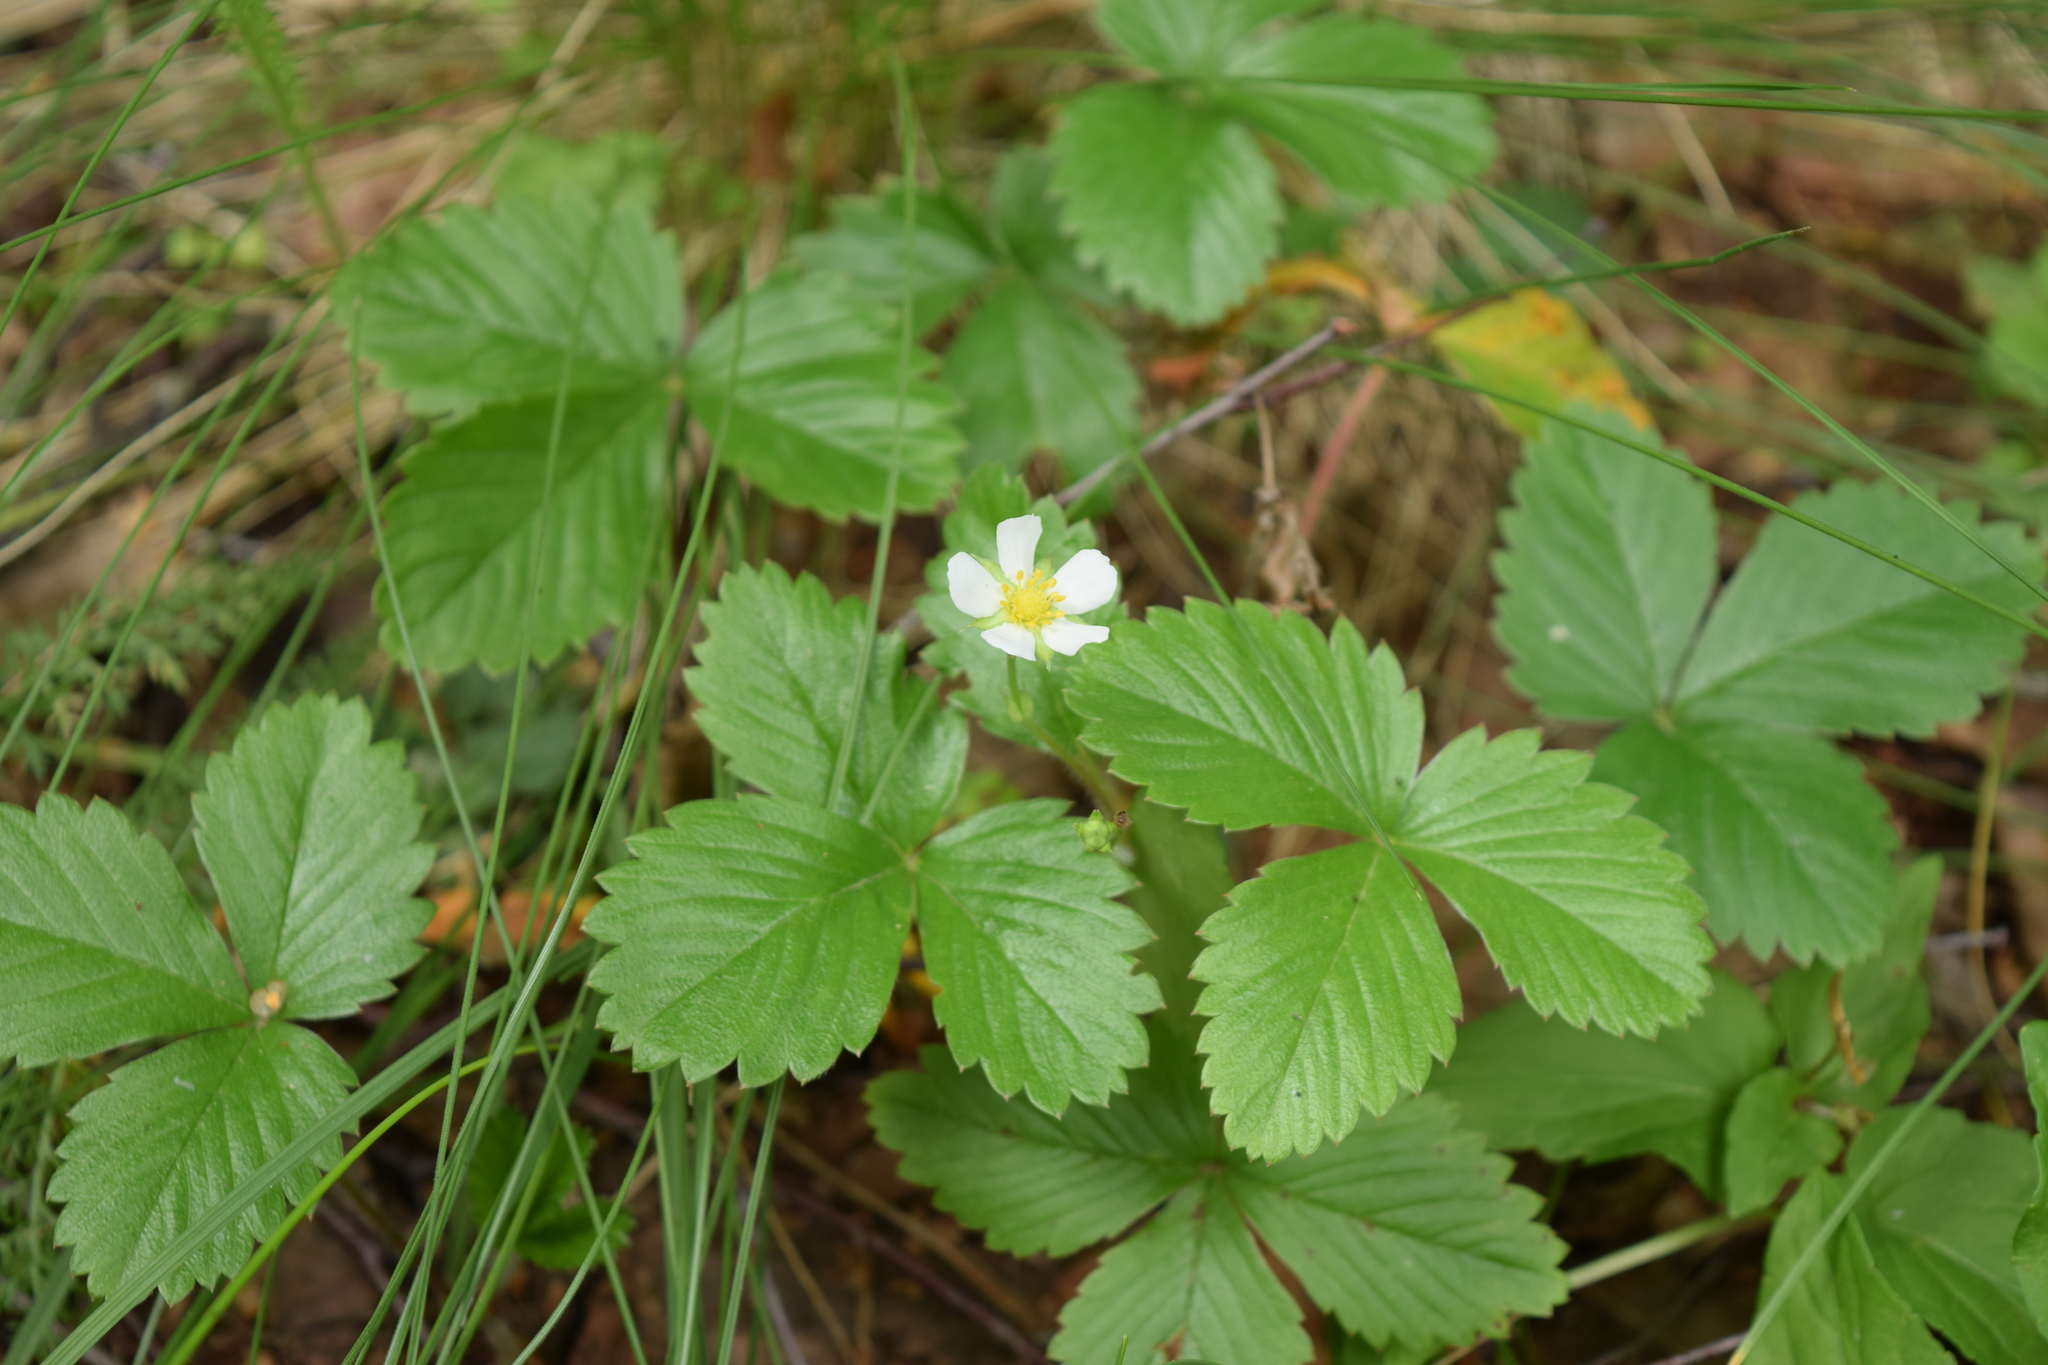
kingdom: Plantae
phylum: Tracheophyta
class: Magnoliopsida
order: Rosales
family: Rosaceae
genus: Fragaria
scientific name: Fragaria vesca
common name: Wild strawberry
